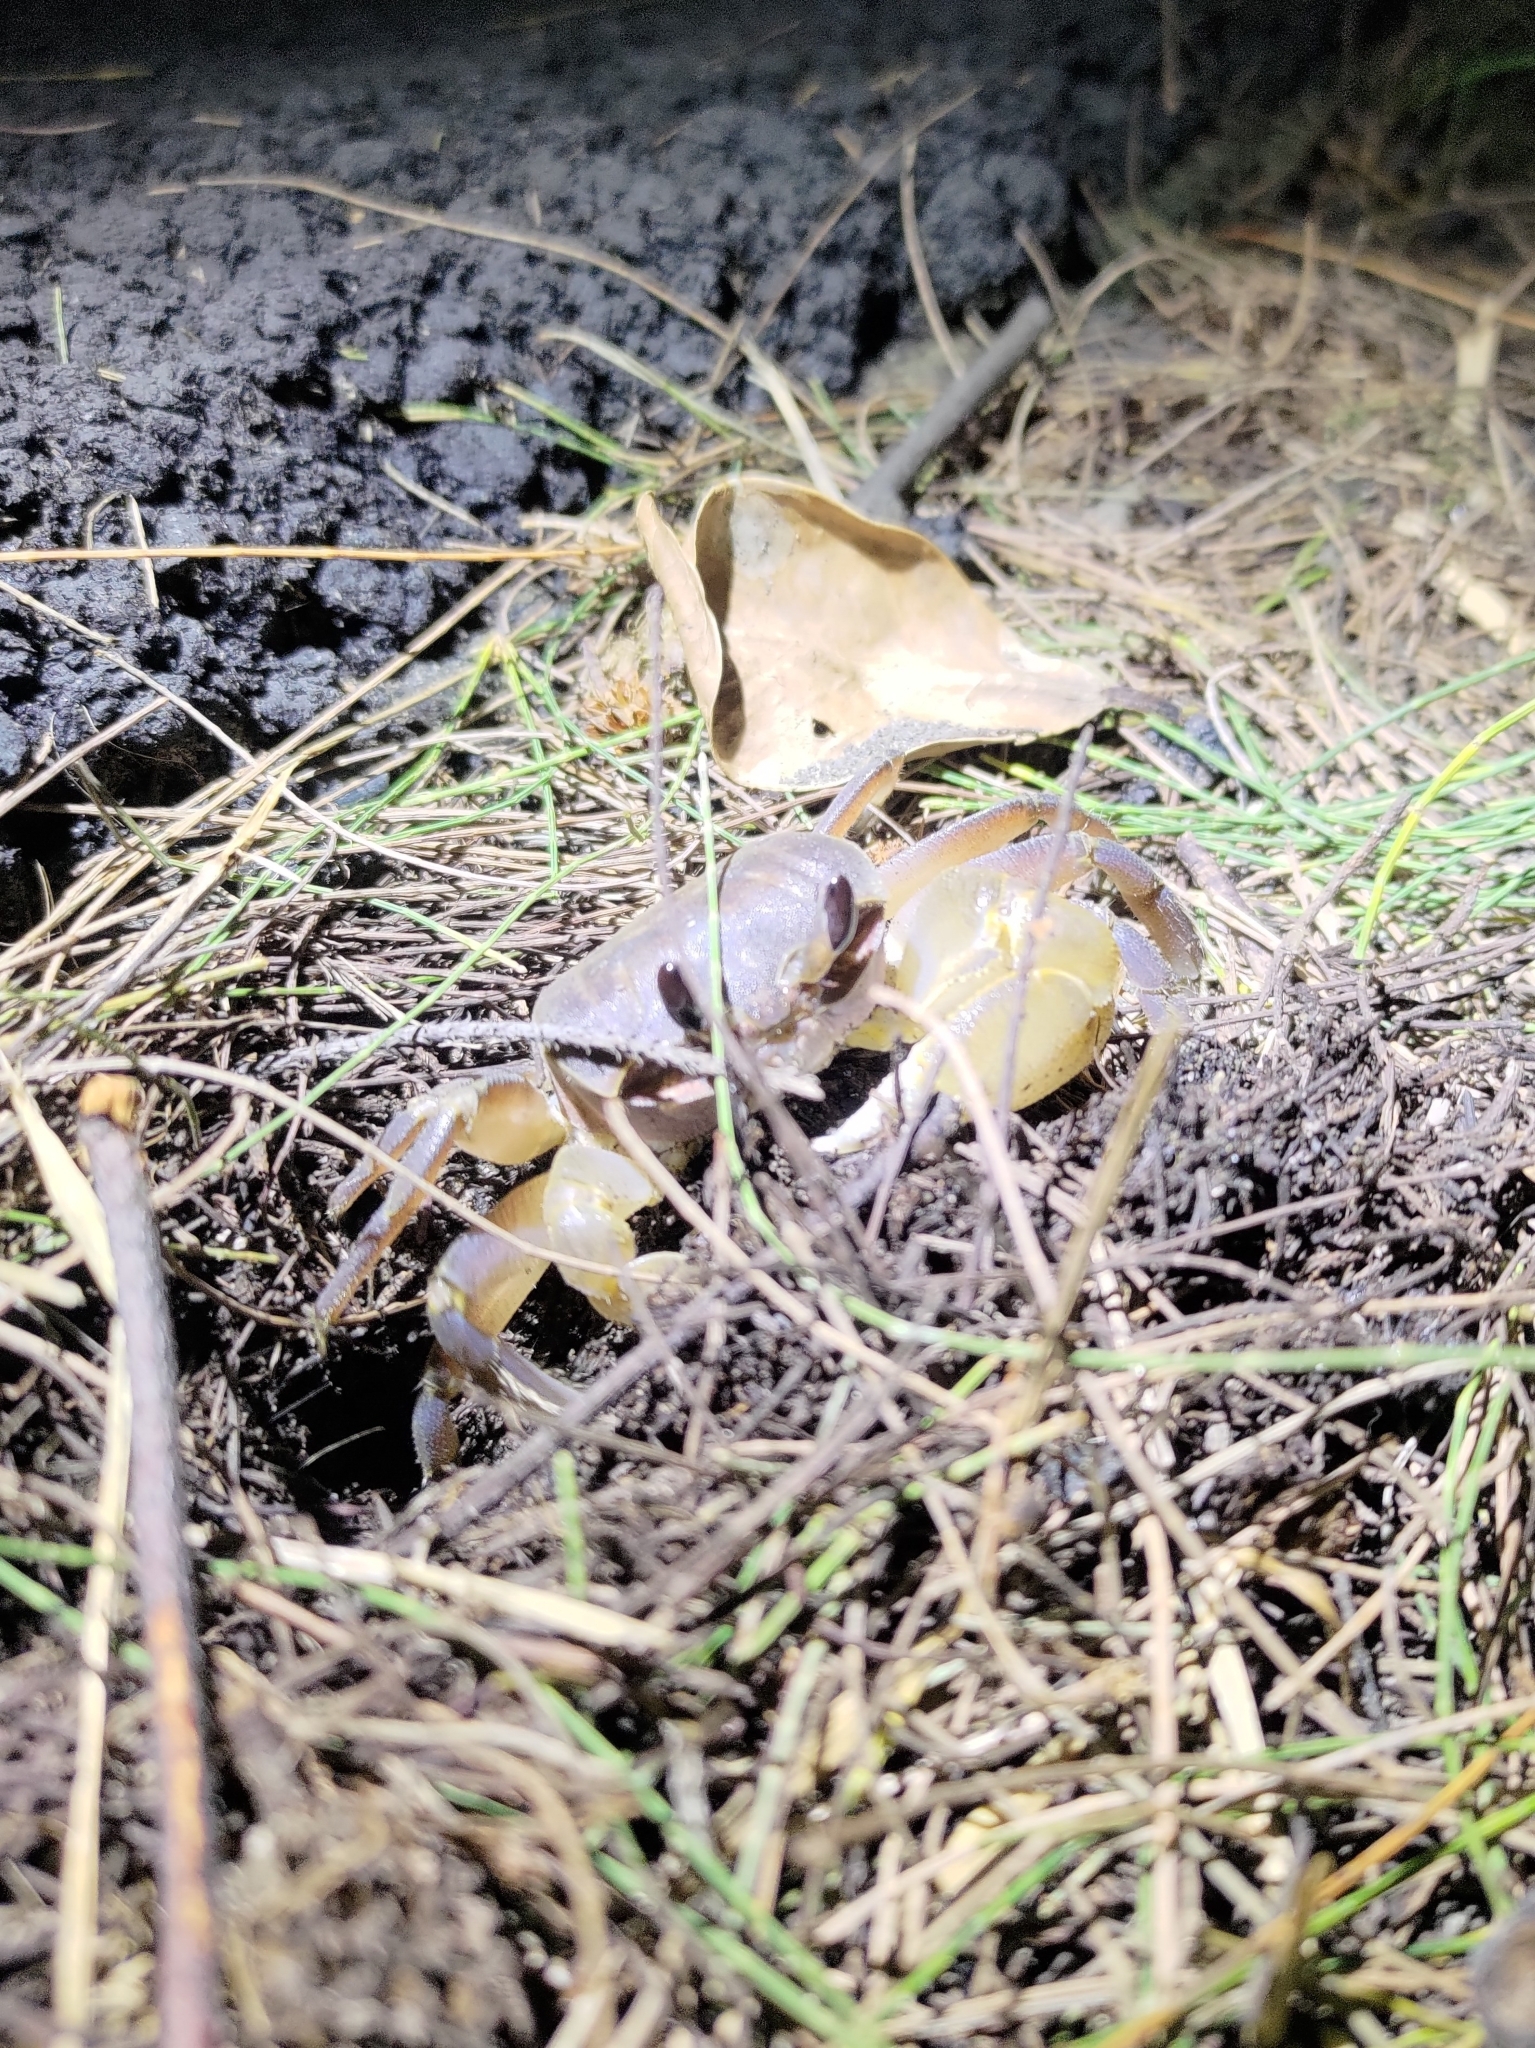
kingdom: Animalia
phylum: Arthropoda
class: Malacostraca
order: Decapoda
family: Ocypodidae
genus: Ocypode
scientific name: Ocypode sinensis
